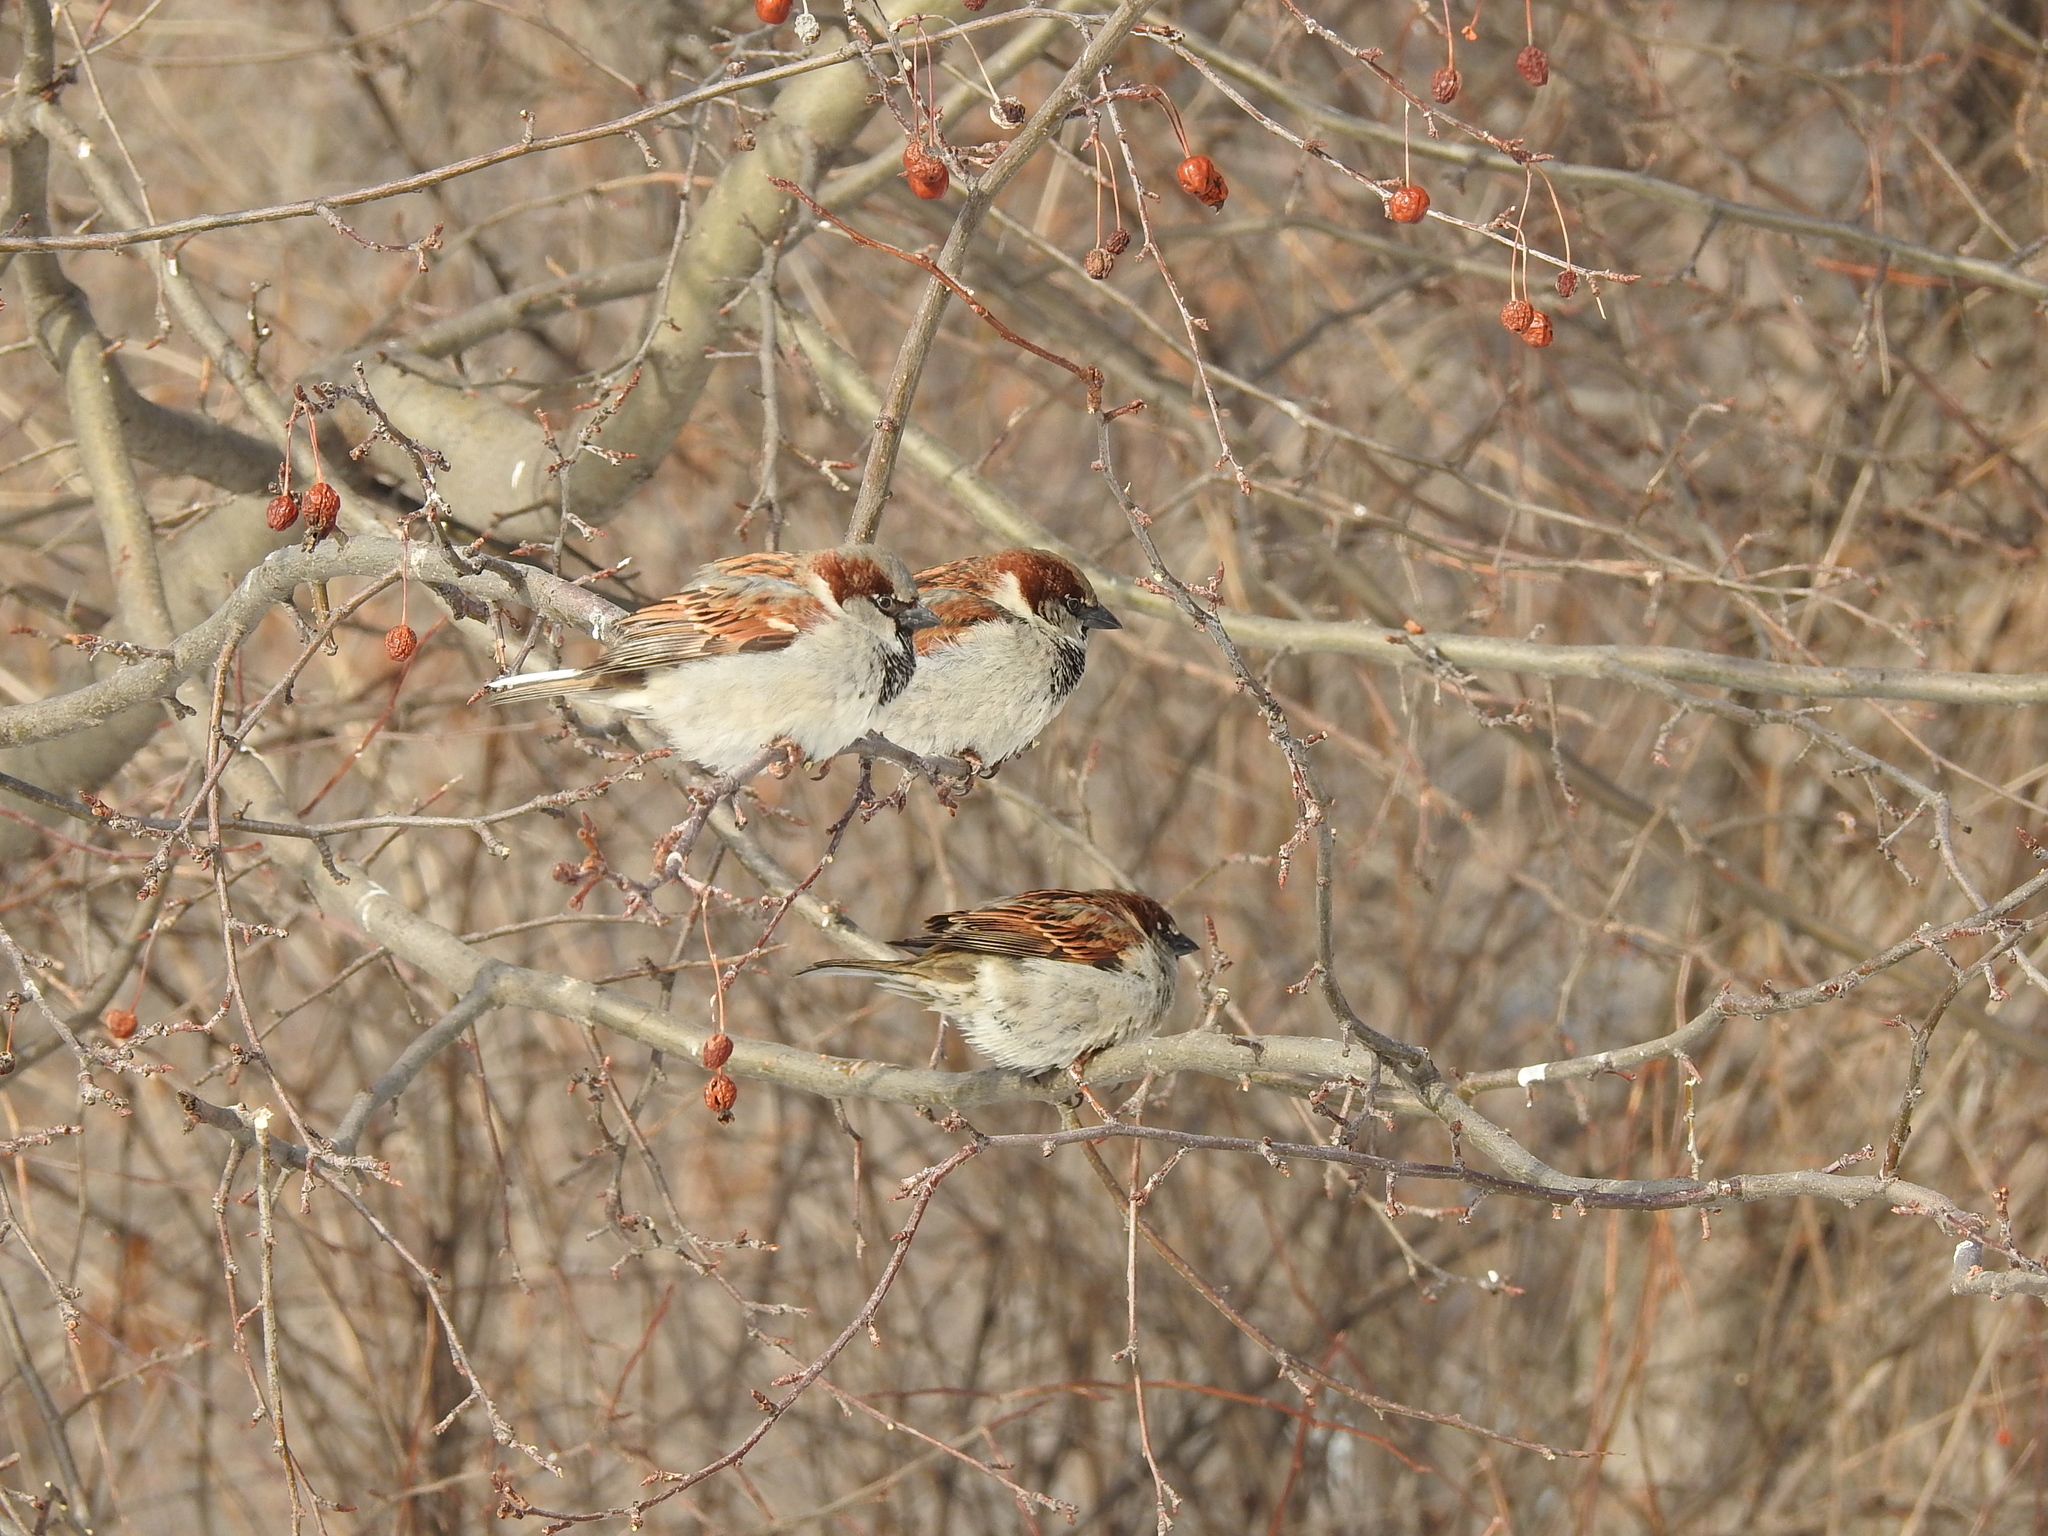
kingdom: Animalia
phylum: Chordata
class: Aves
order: Passeriformes
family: Passeridae
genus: Passer
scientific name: Passer domesticus
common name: House sparrow
